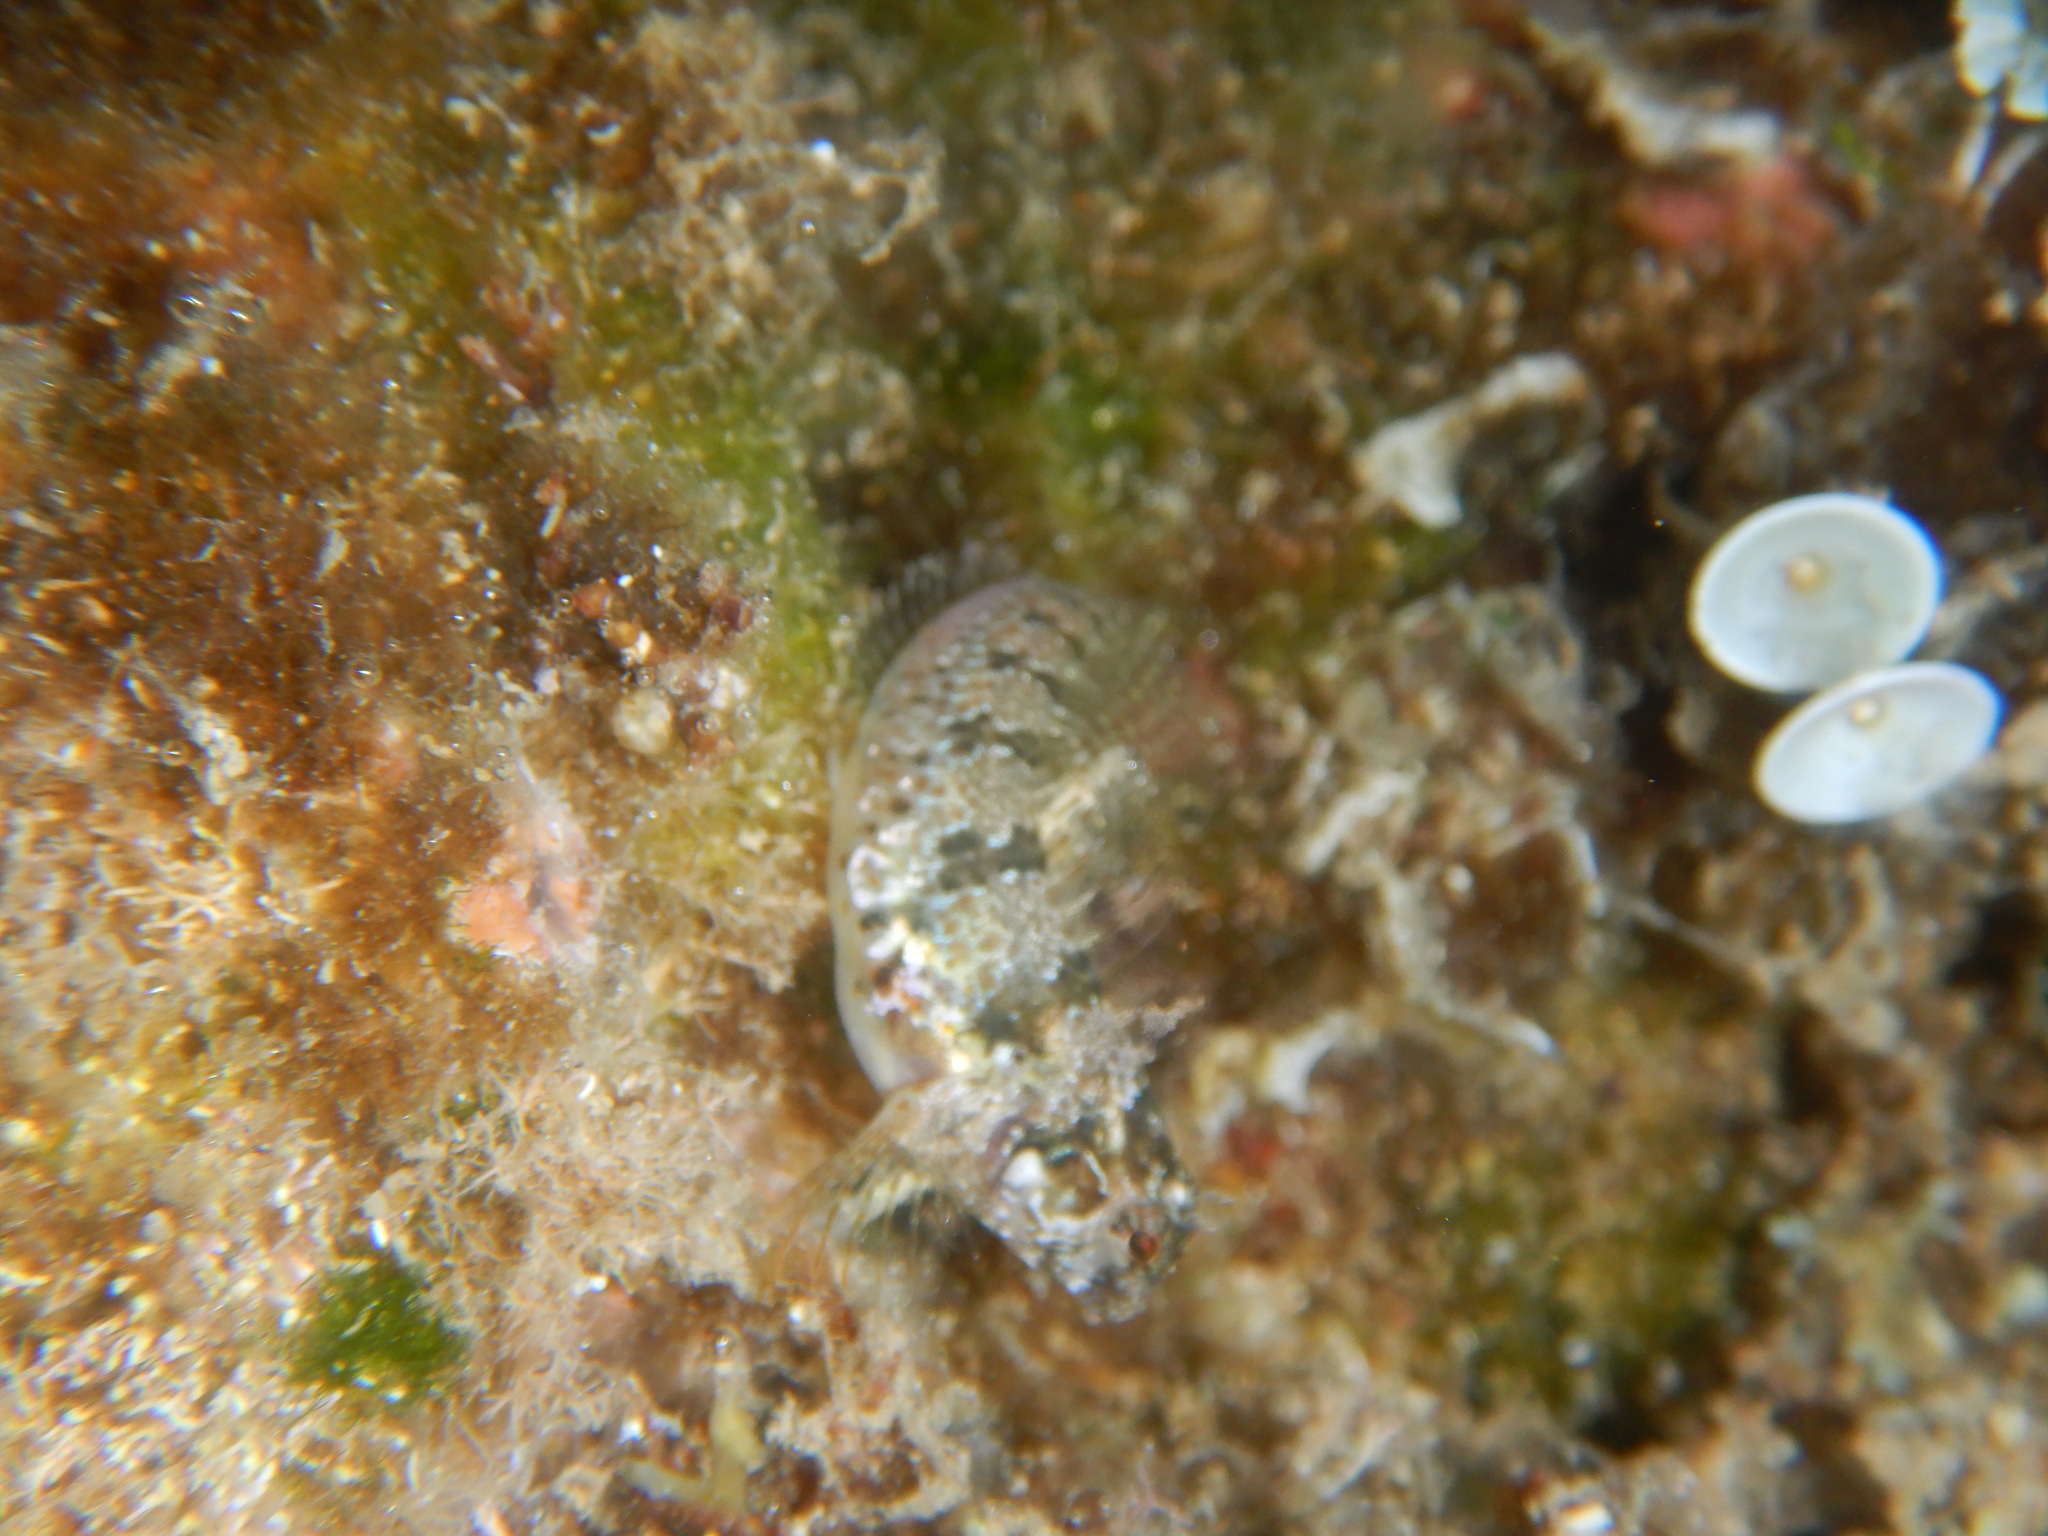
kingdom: Animalia
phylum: Chordata
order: Perciformes
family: Blenniidae
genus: Parablennius
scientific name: Parablennius incognitus
